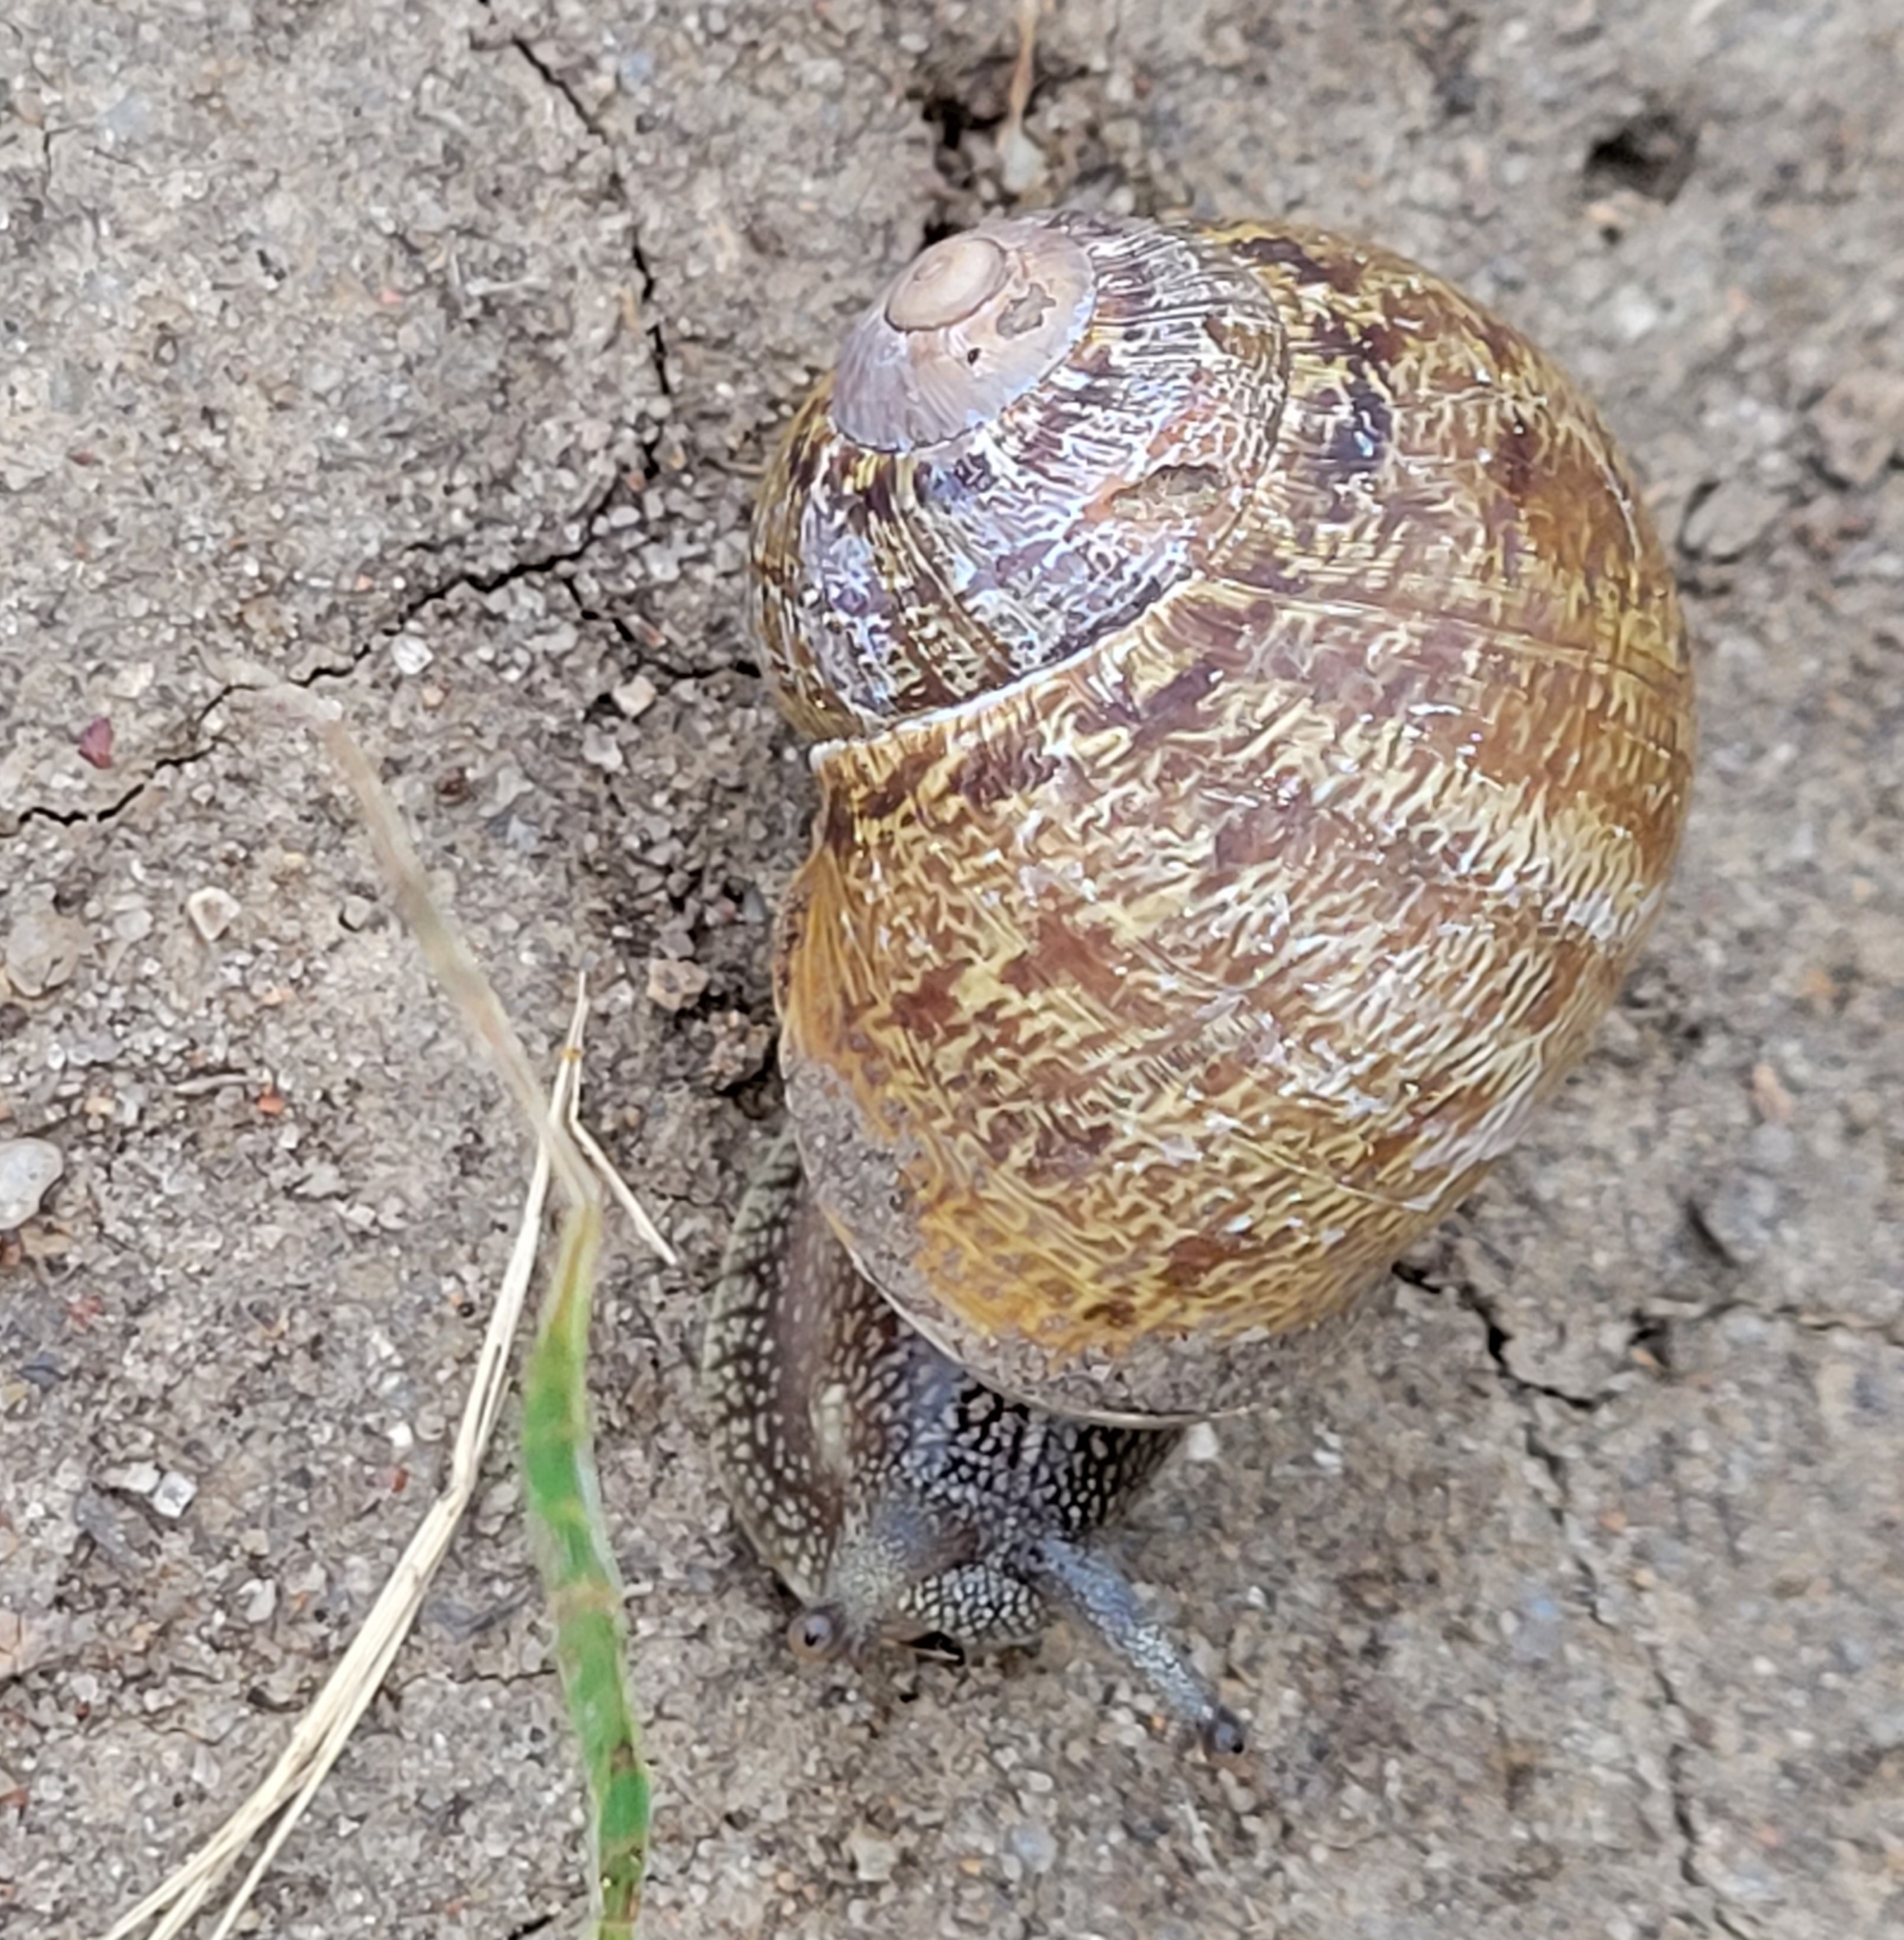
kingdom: Animalia
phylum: Mollusca
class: Gastropoda
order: Stylommatophora
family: Helicidae
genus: Cornu
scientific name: Cornu aspersum
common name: Brown garden snail
